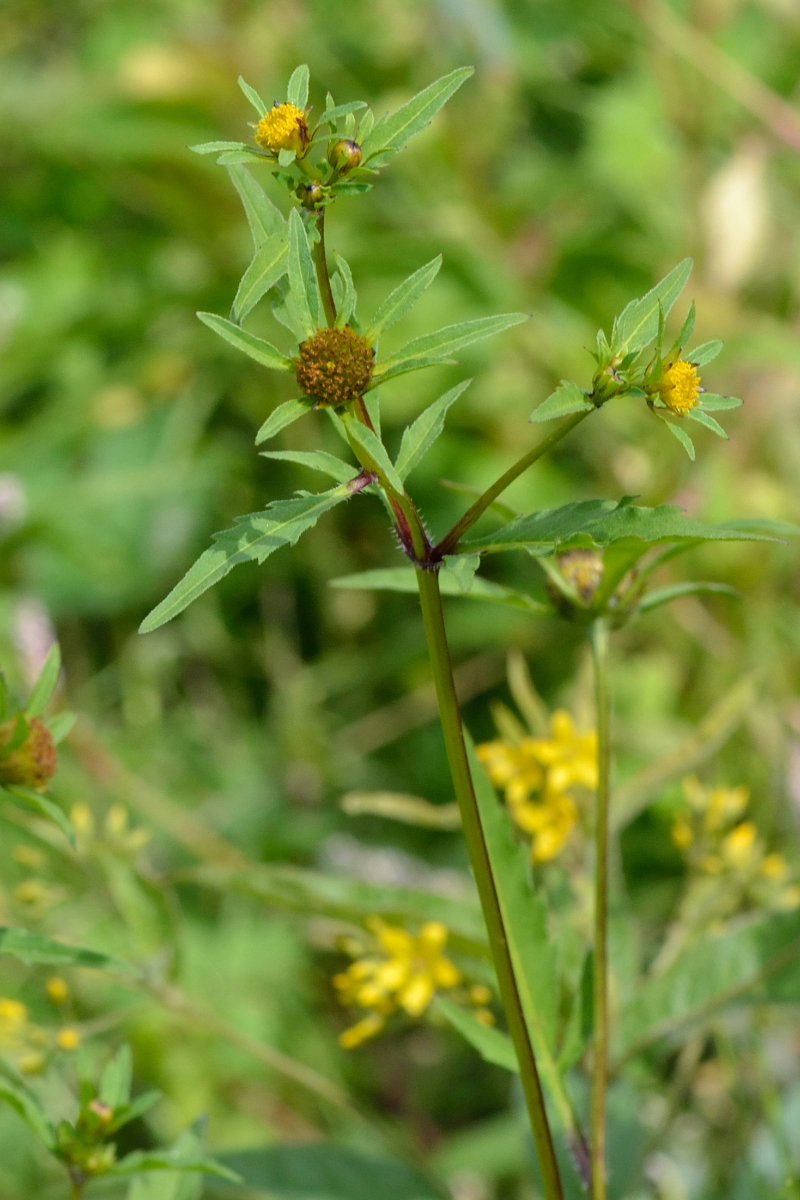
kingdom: Plantae
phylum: Tracheophyta
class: Magnoliopsida
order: Asterales
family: Asteraceae
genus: Bidens
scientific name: Bidens tripartita
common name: Trifid bur-marigold
